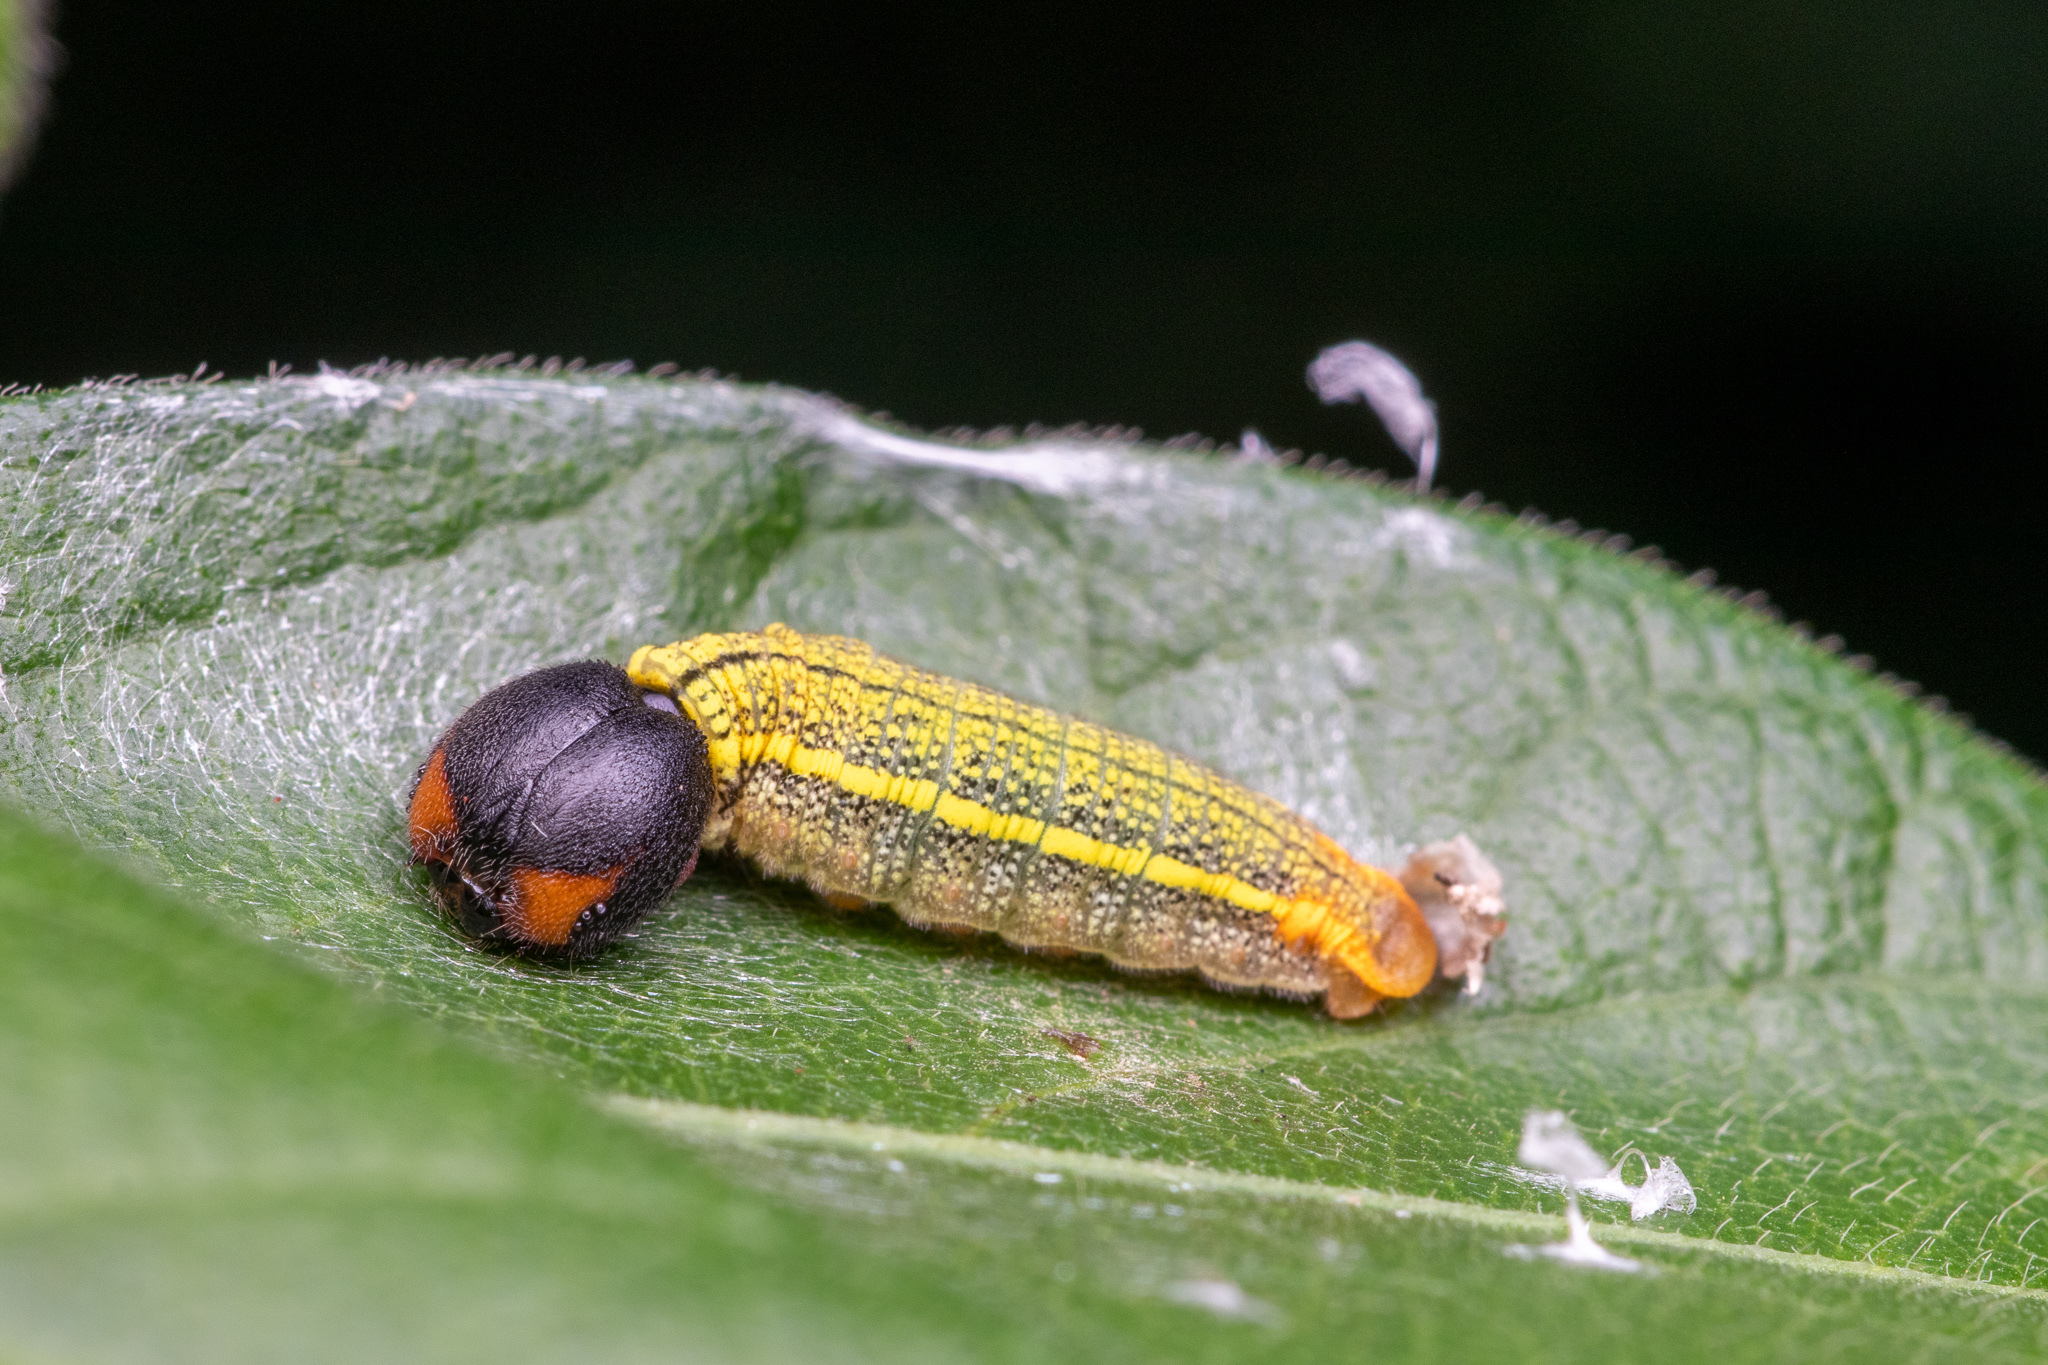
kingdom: Animalia
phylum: Arthropoda
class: Insecta
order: Lepidoptera
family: Hesperiidae
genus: Epargyreus
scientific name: Epargyreus clarus
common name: Silver-spotted skipper
